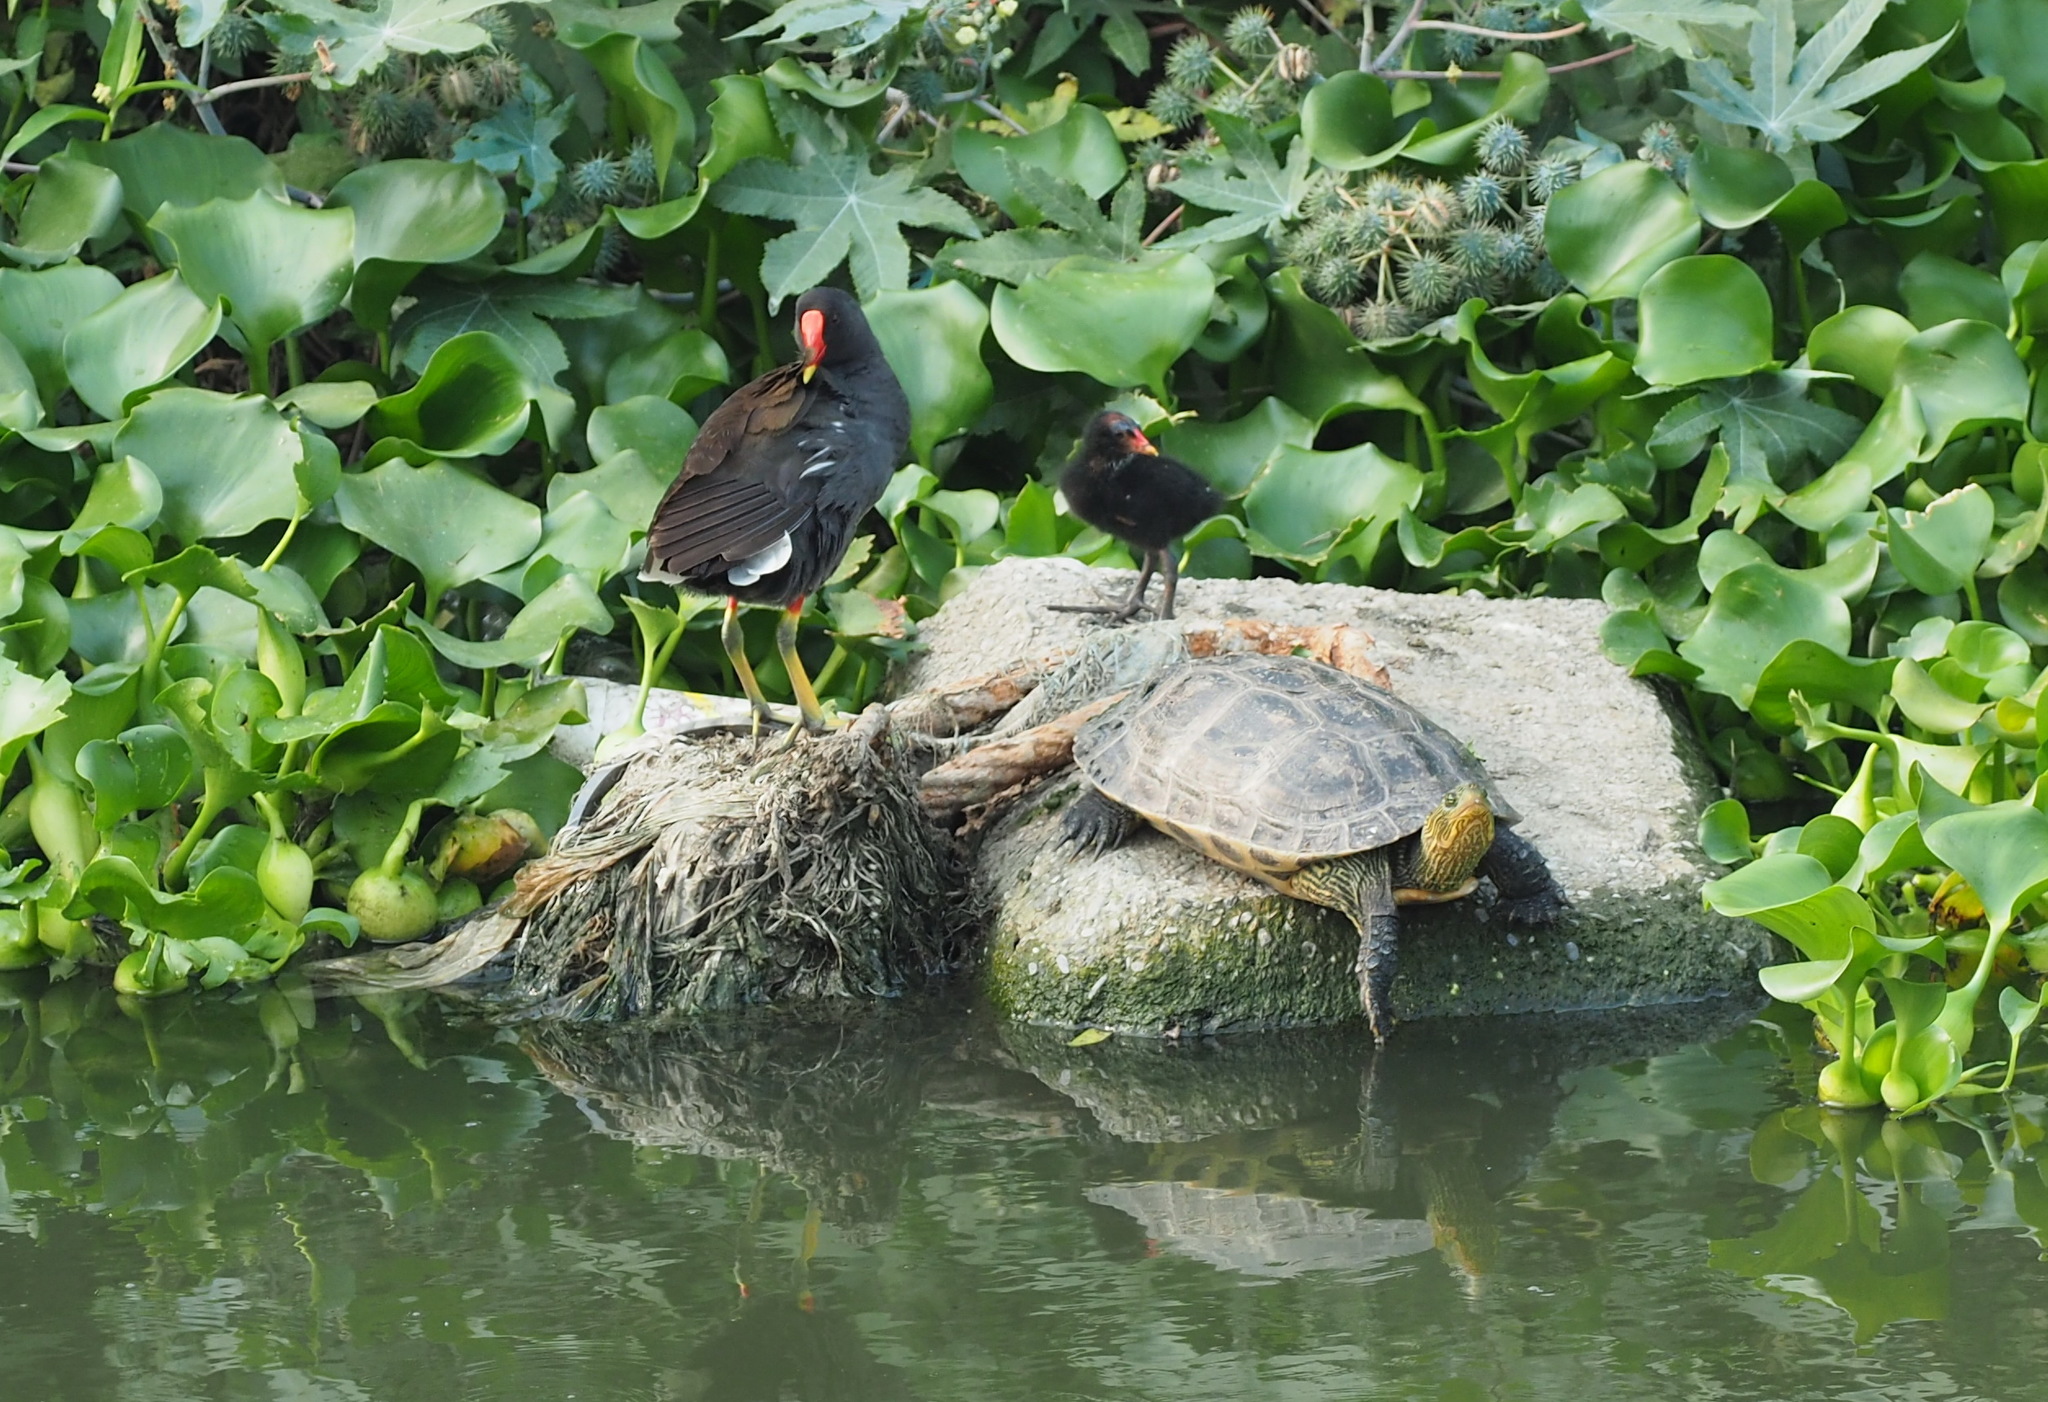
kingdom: Animalia
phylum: Chordata
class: Aves
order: Gruiformes
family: Rallidae
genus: Gallinula
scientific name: Gallinula chloropus
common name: Common moorhen
